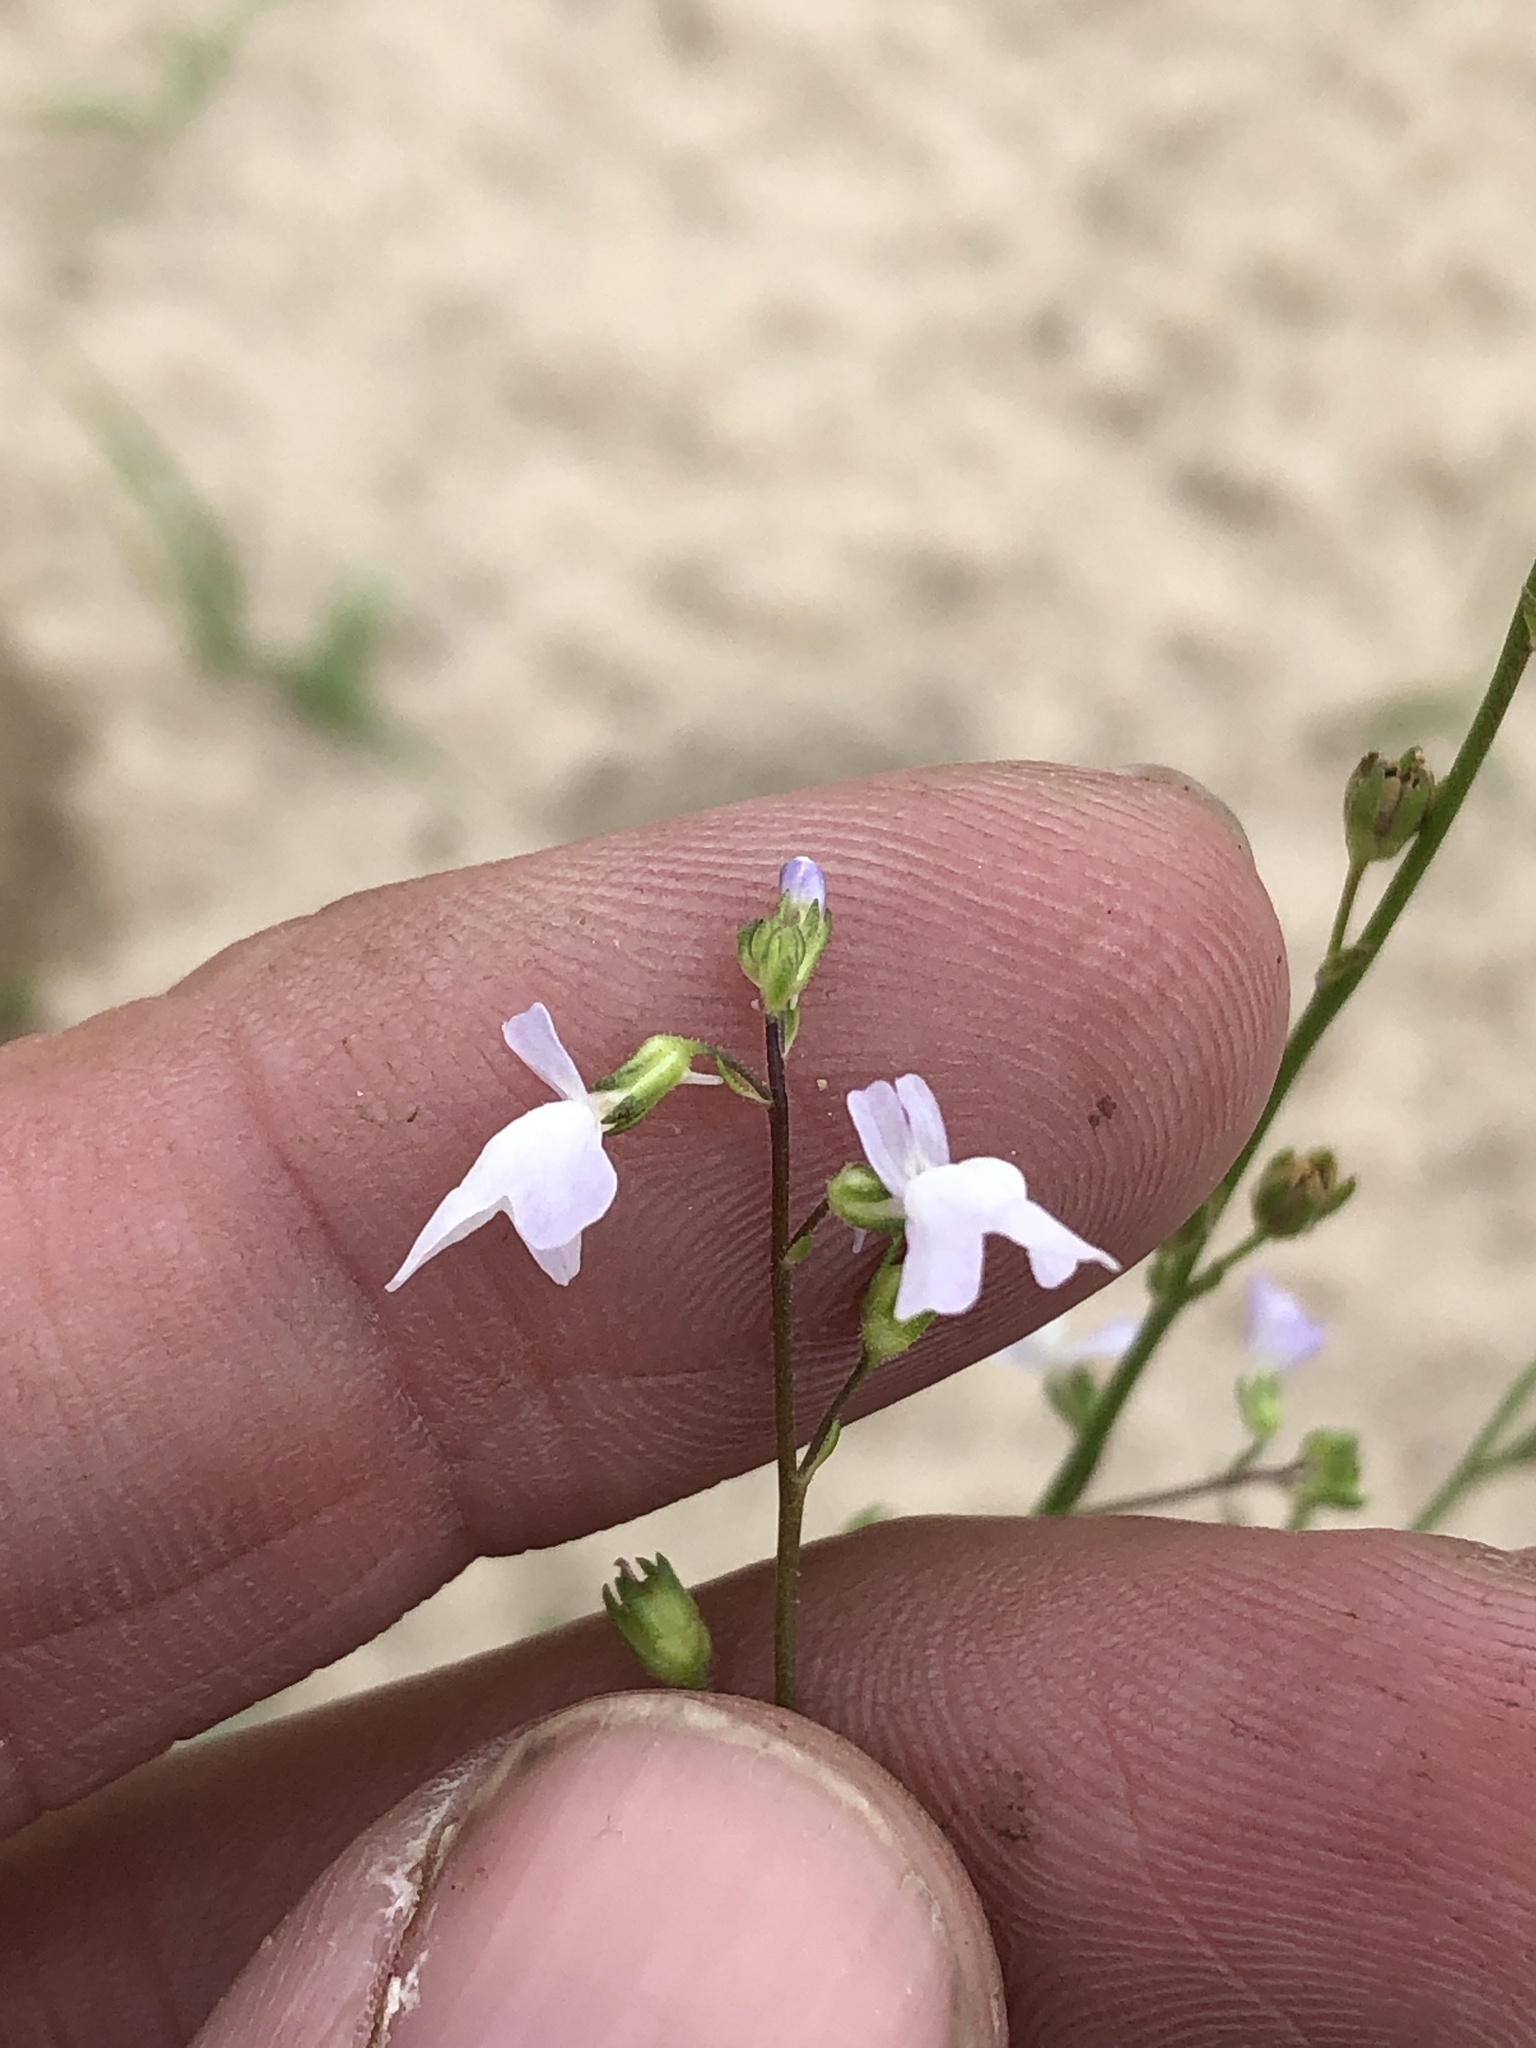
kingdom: Plantae
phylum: Tracheophyta
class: Magnoliopsida
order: Lamiales
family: Plantaginaceae
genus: Nuttallanthus
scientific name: Nuttallanthus canadensis
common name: Blue toadflax
